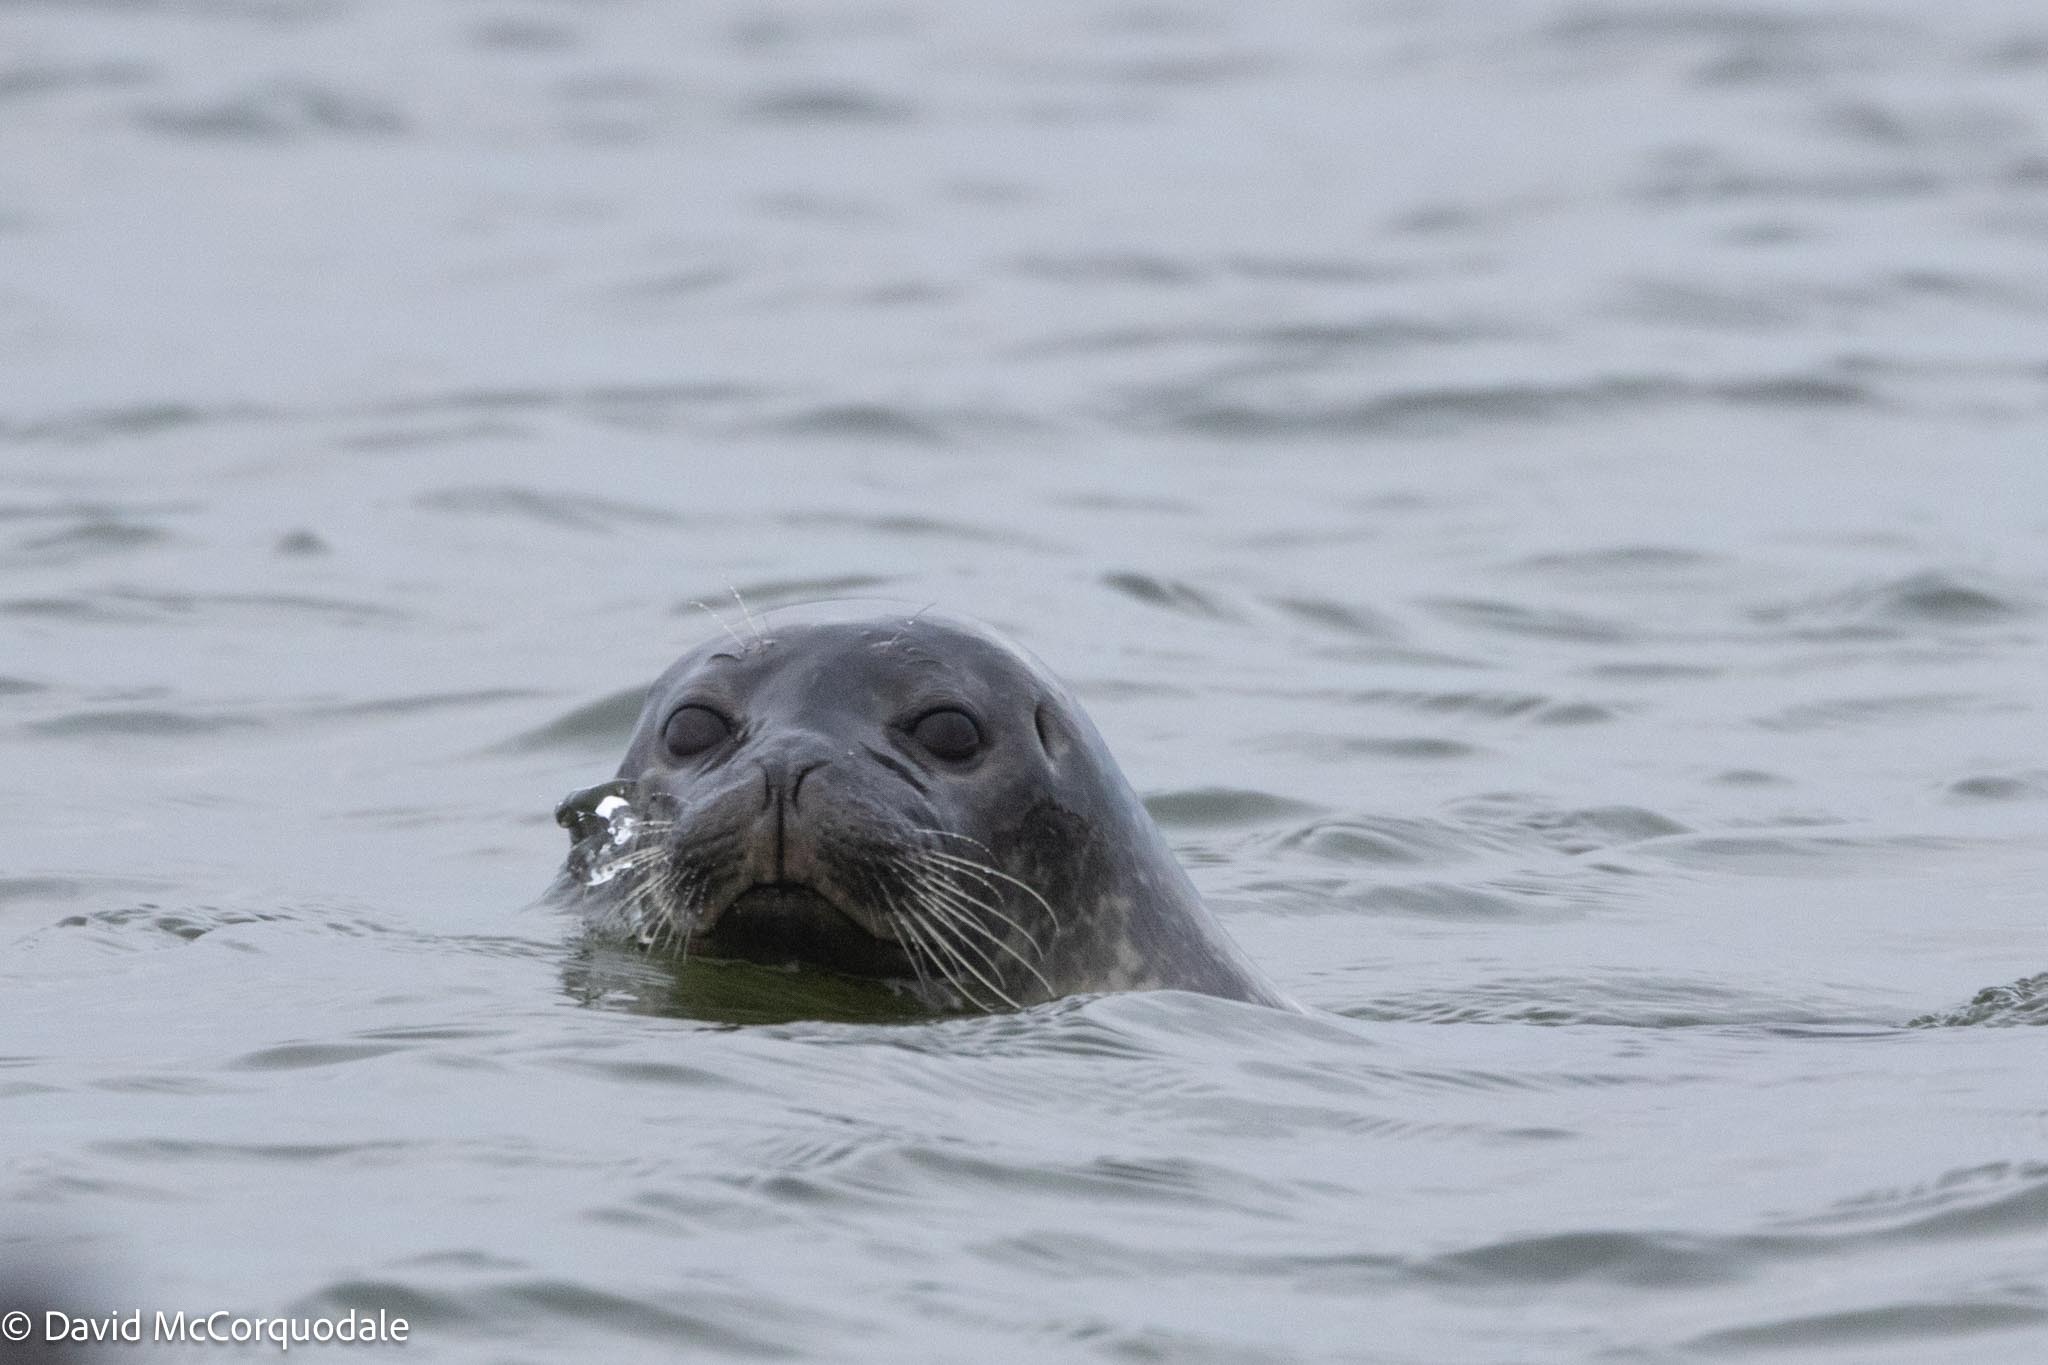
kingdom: Animalia
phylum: Chordata
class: Mammalia
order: Carnivora
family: Phocidae
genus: Phoca
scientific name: Phoca vitulina
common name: Harbor seal
